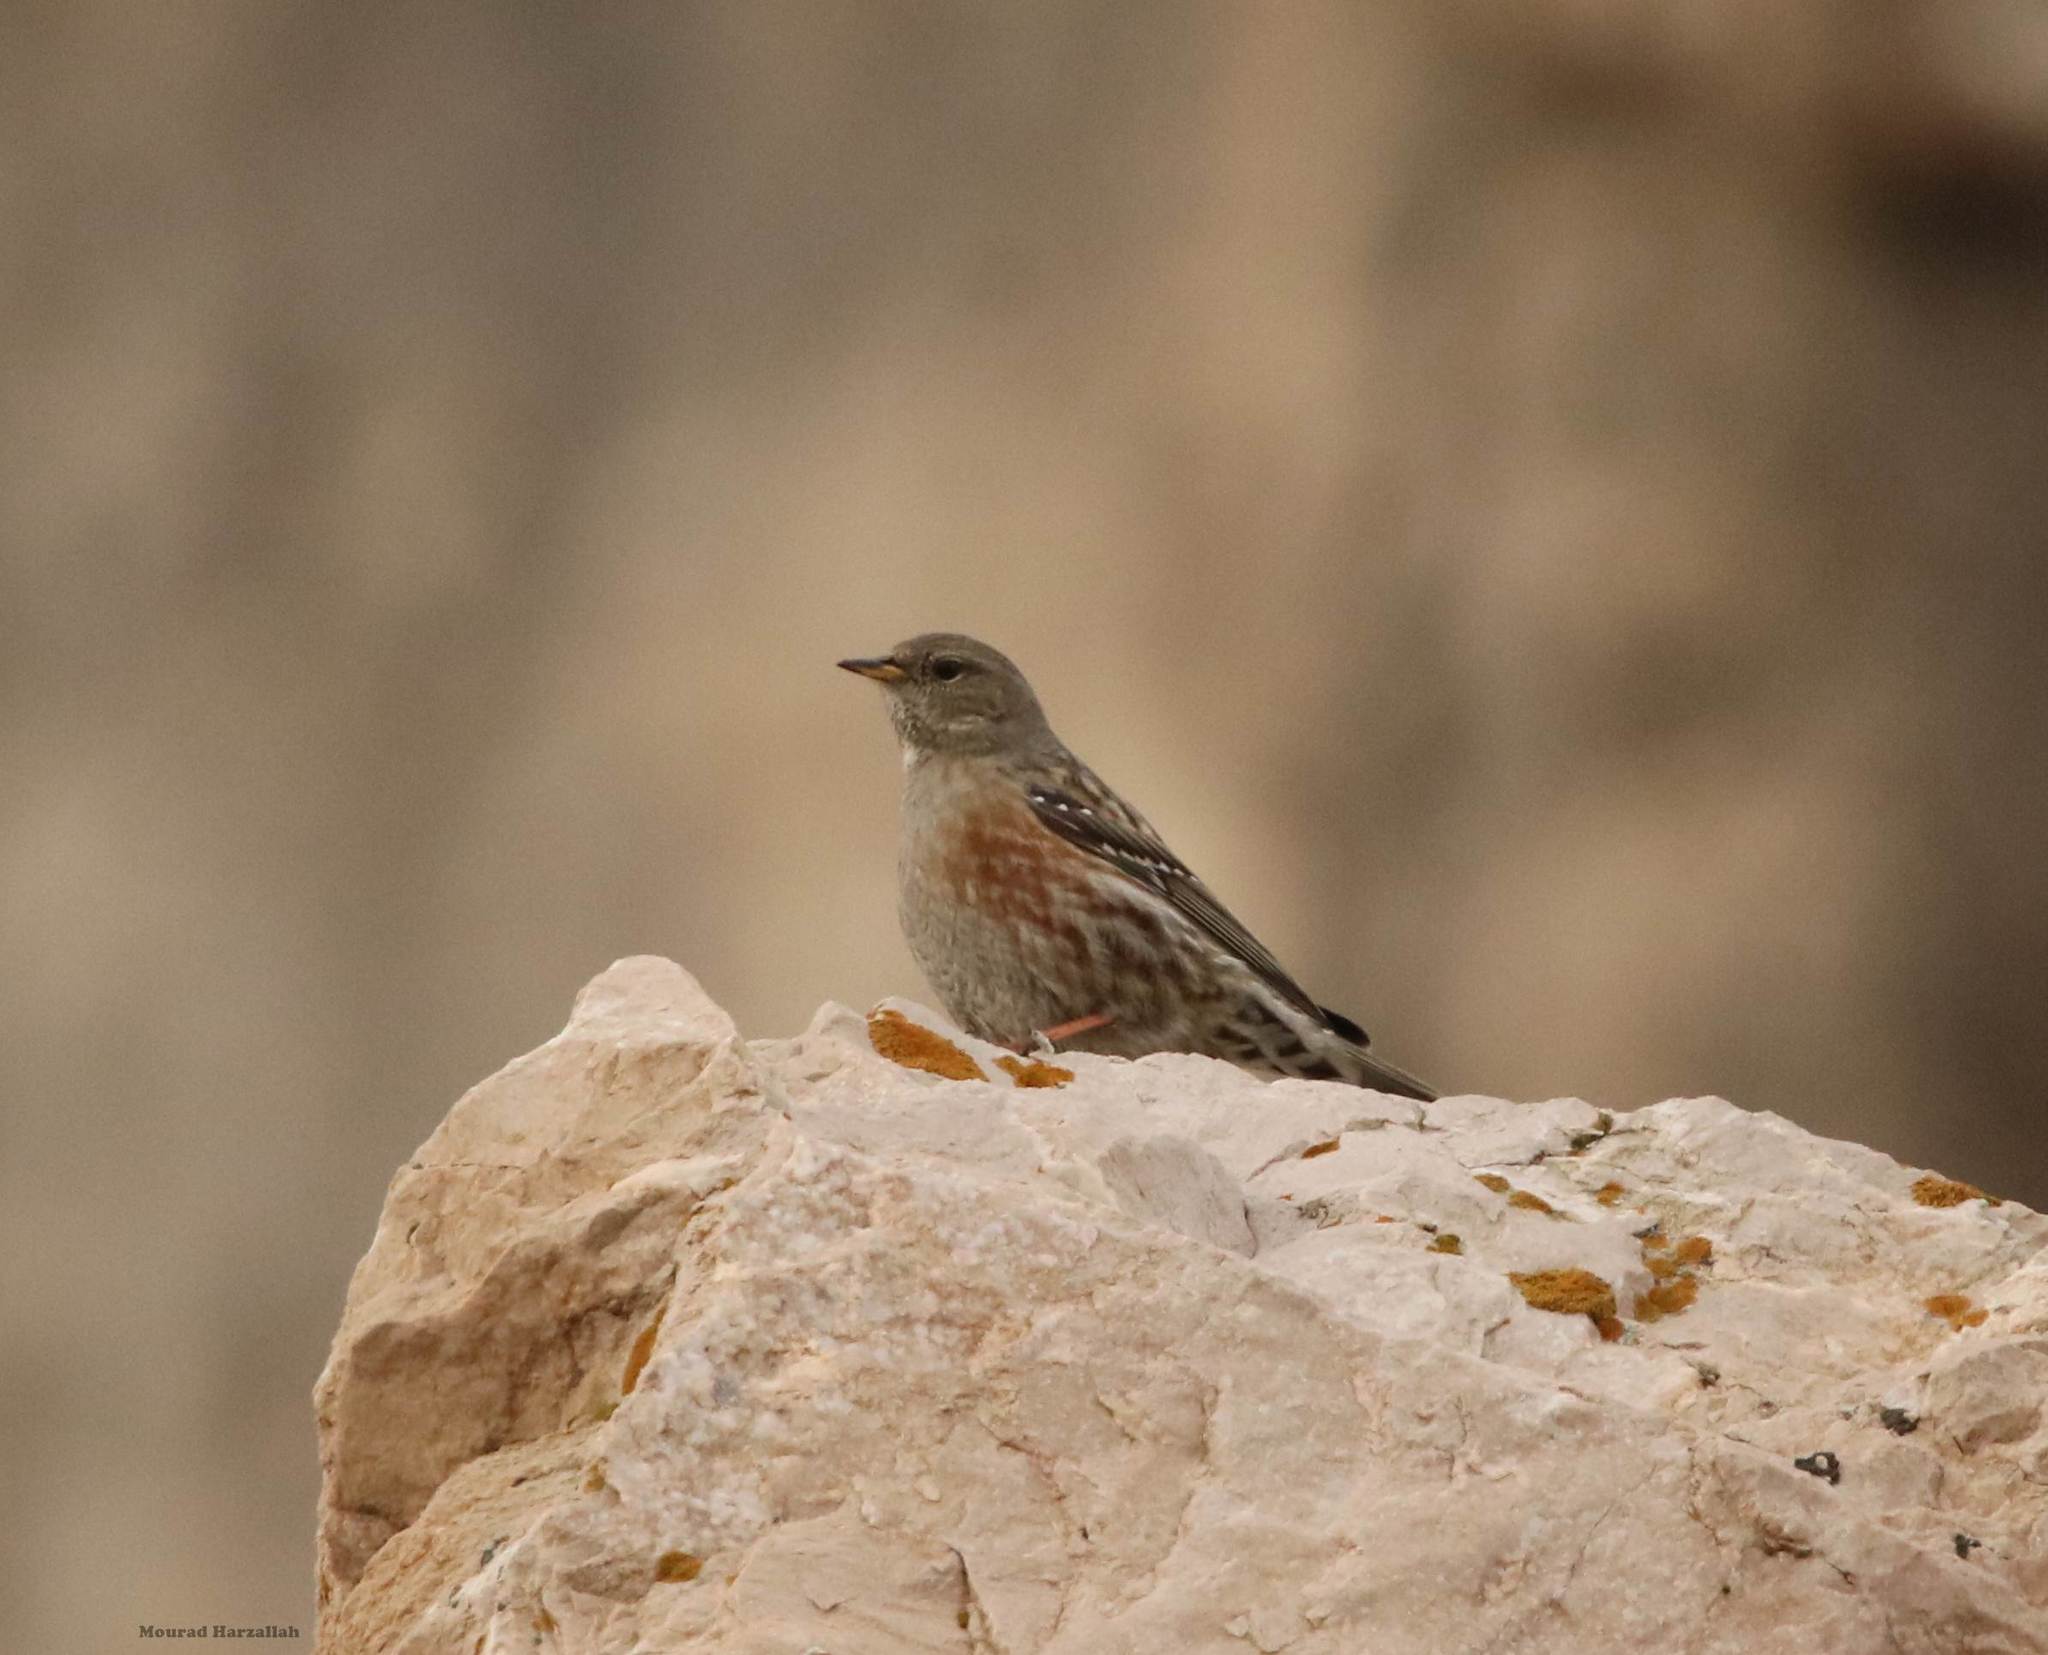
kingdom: Animalia
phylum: Chordata
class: Aves
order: Passeriformes
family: Prunellidae
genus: Prunella
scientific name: Prunella collaris
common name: Alpine accentor
